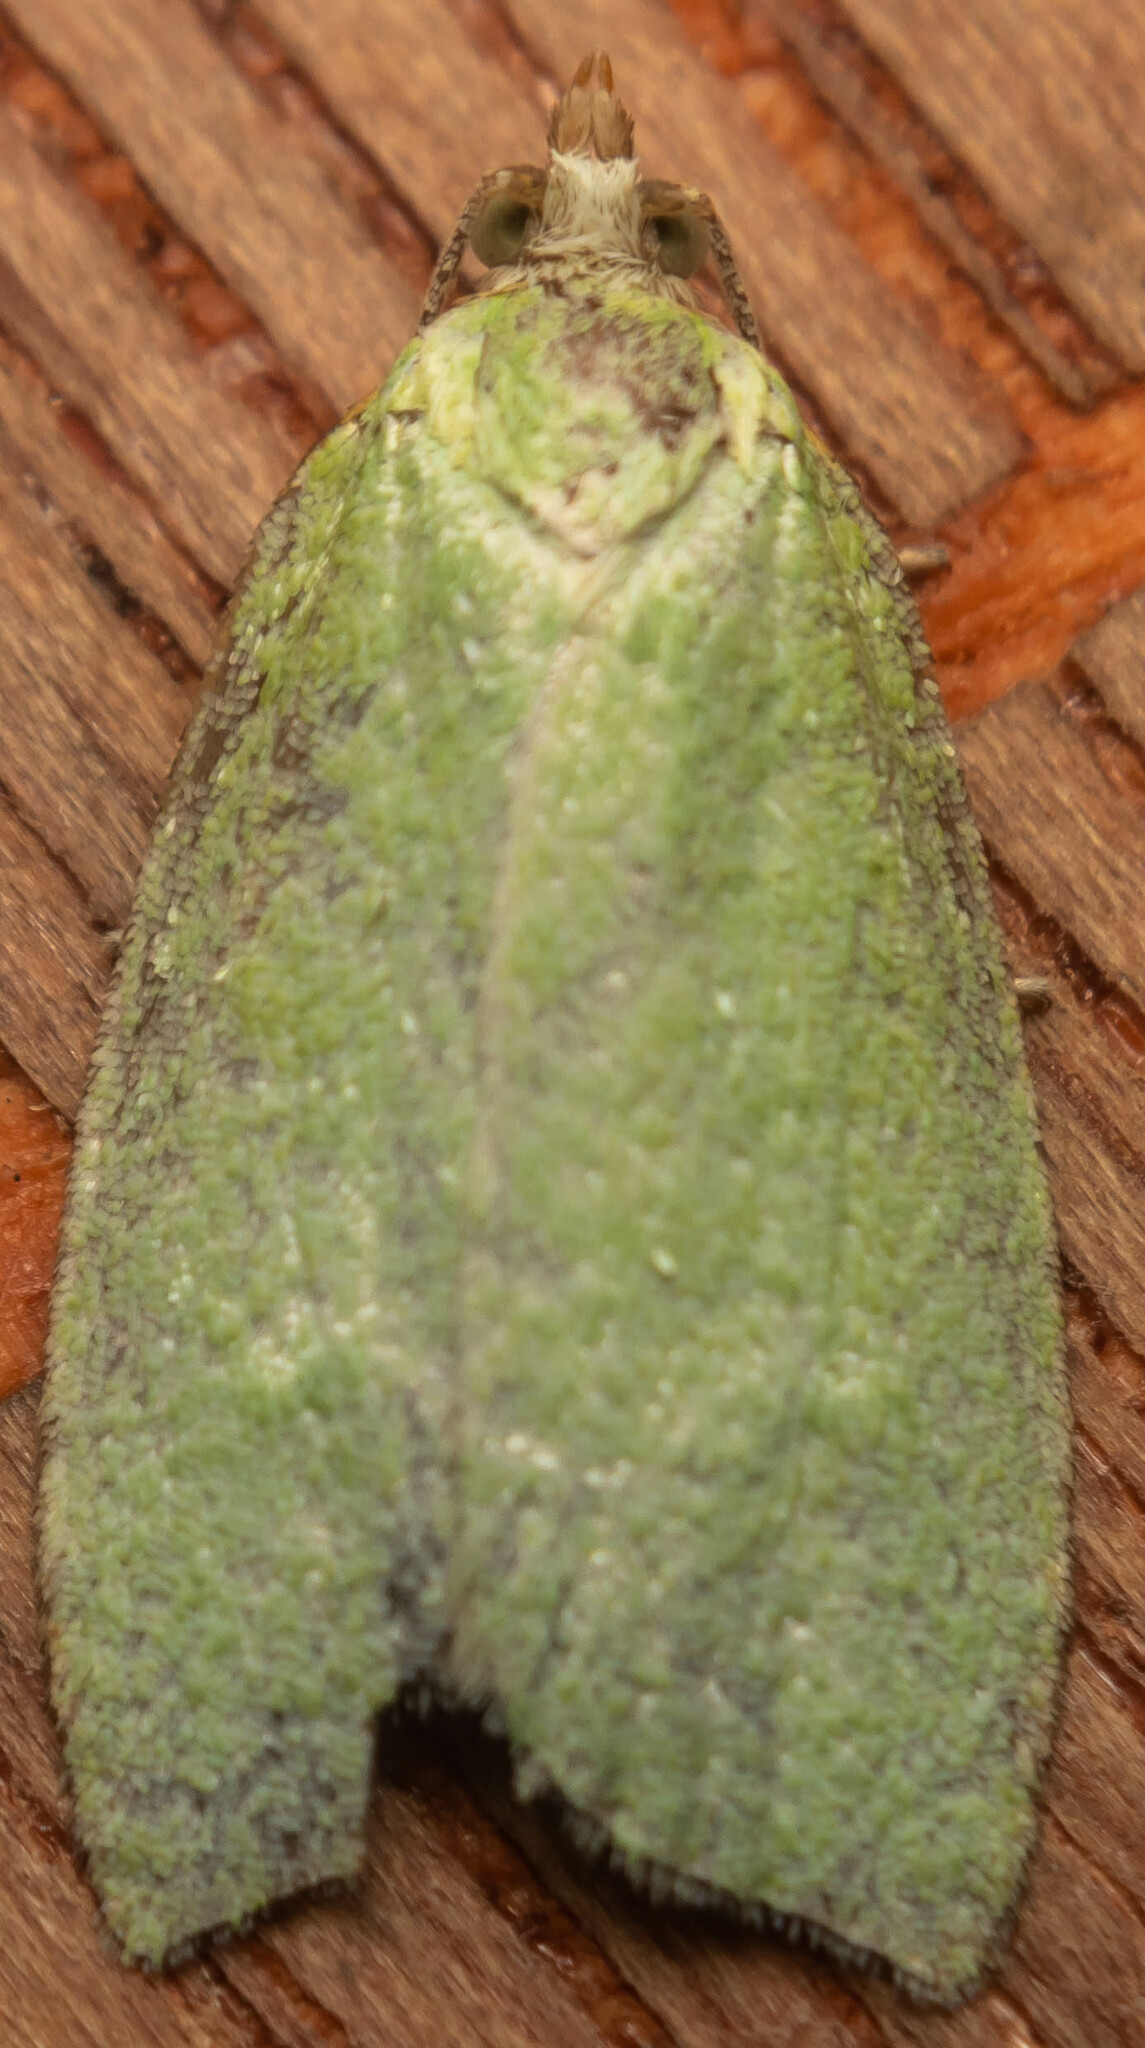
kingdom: Animalia
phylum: Arthropoda
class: Insecta
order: Lepidoptera
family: Tortricidae
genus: Tortrix
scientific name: Tortrix viridana
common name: Green oak tortrix
